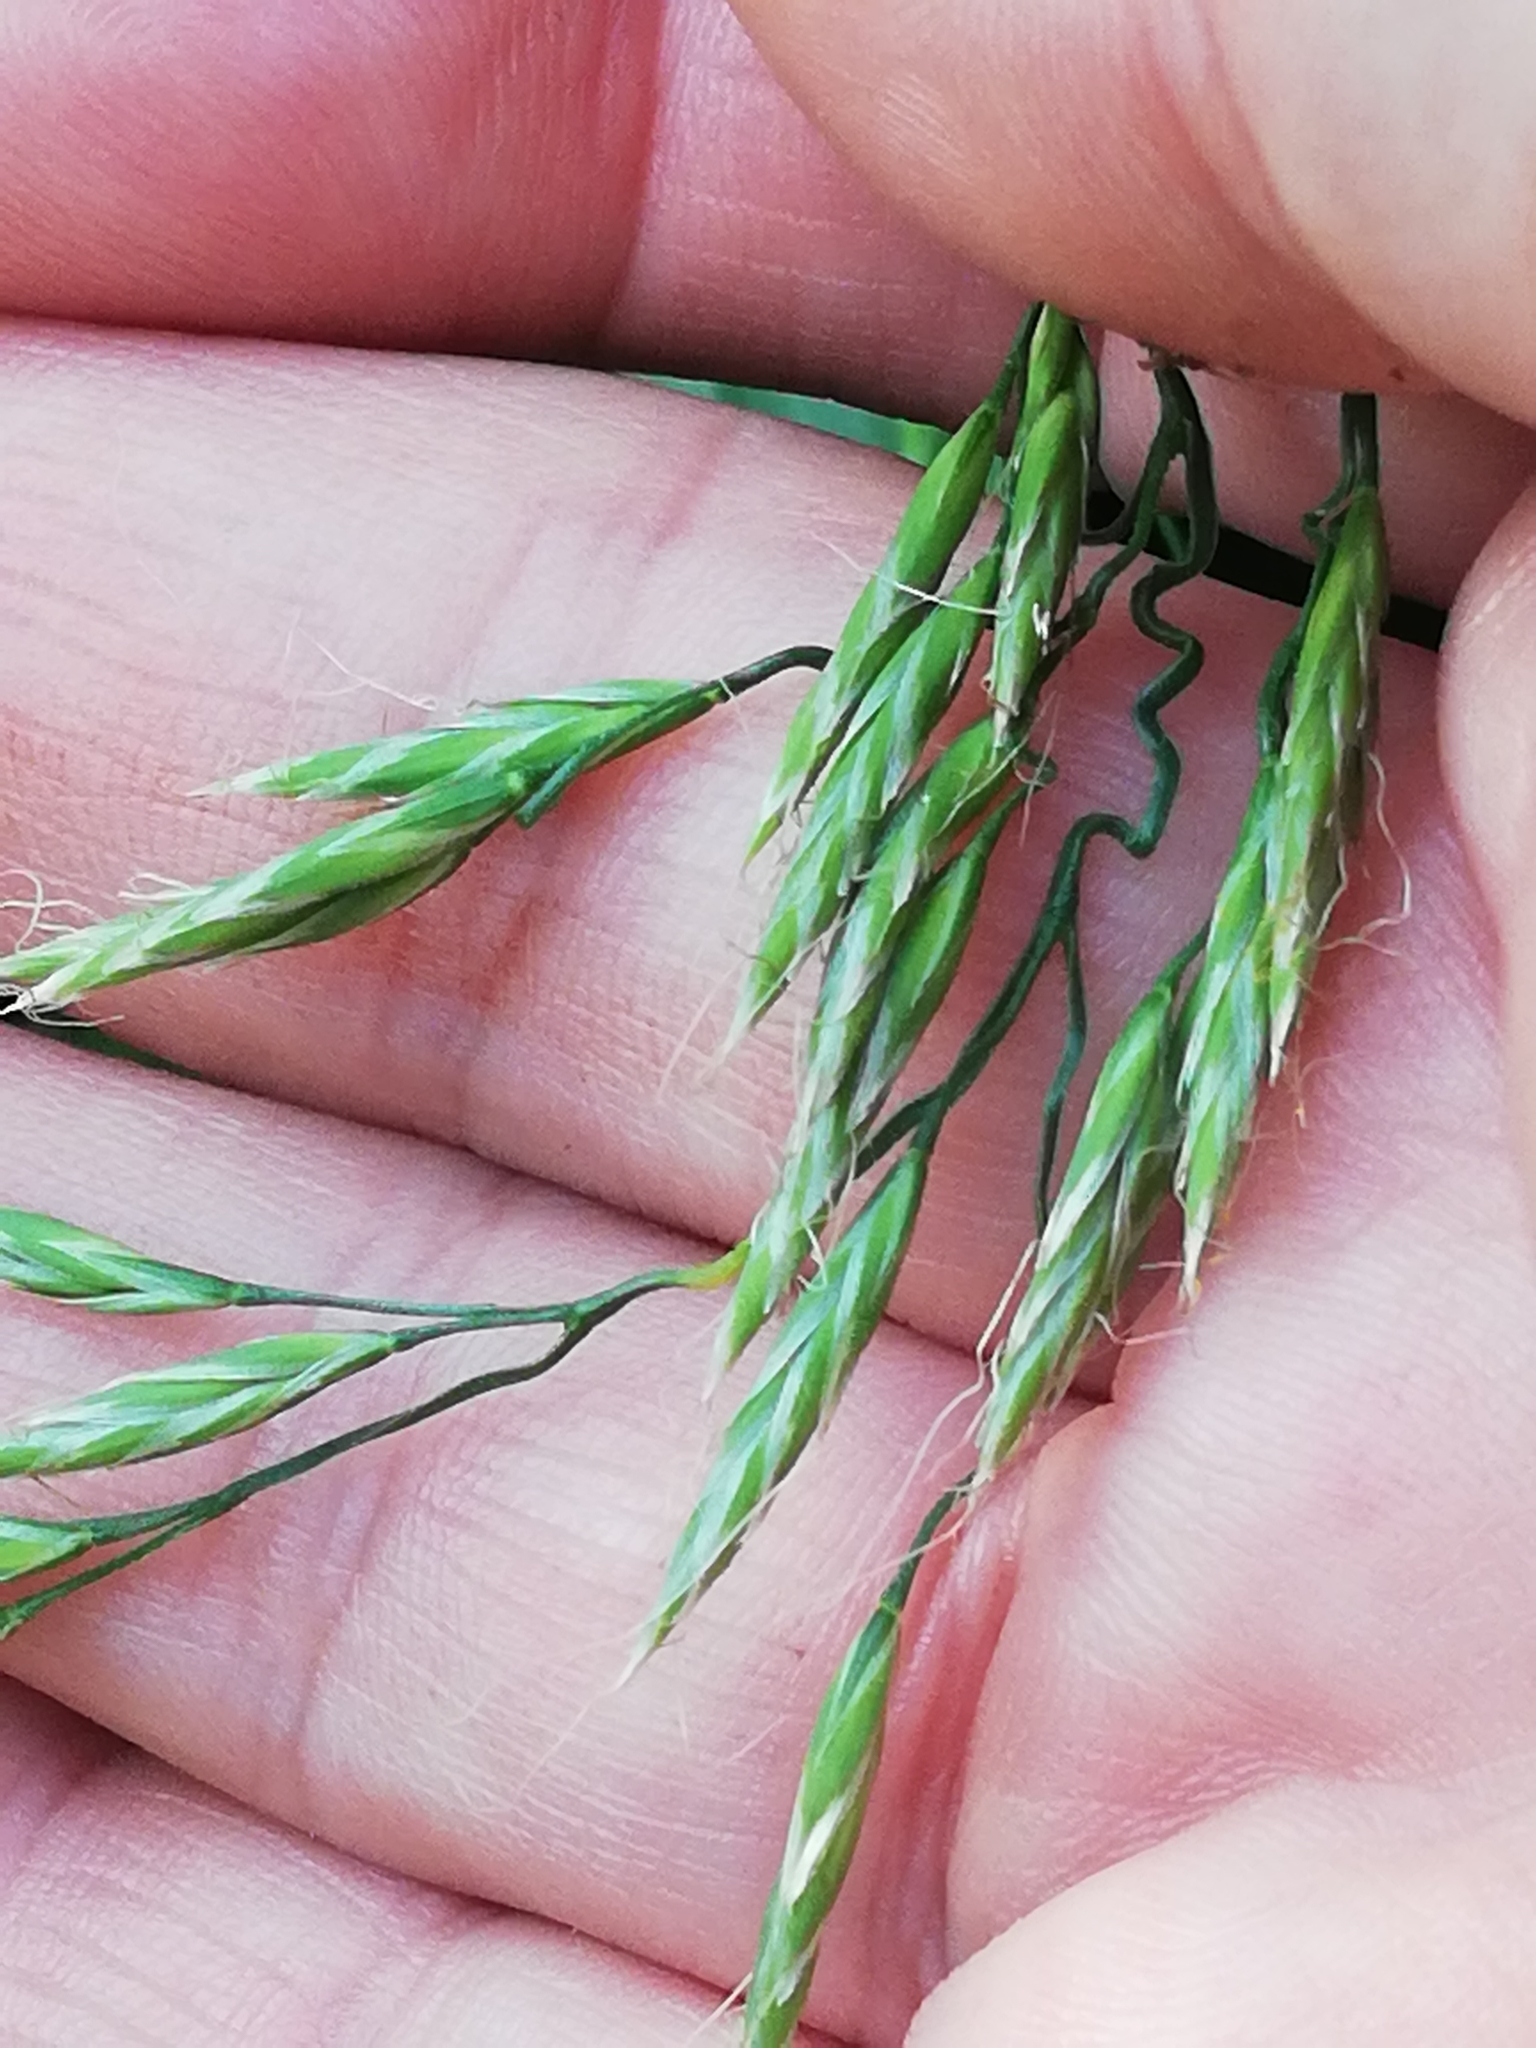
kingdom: Plantae
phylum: Tracheophyta
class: Liliopsida
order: Poales
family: Poaceae
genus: Lolium
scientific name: Lolium giganteum
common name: Giant fescue
